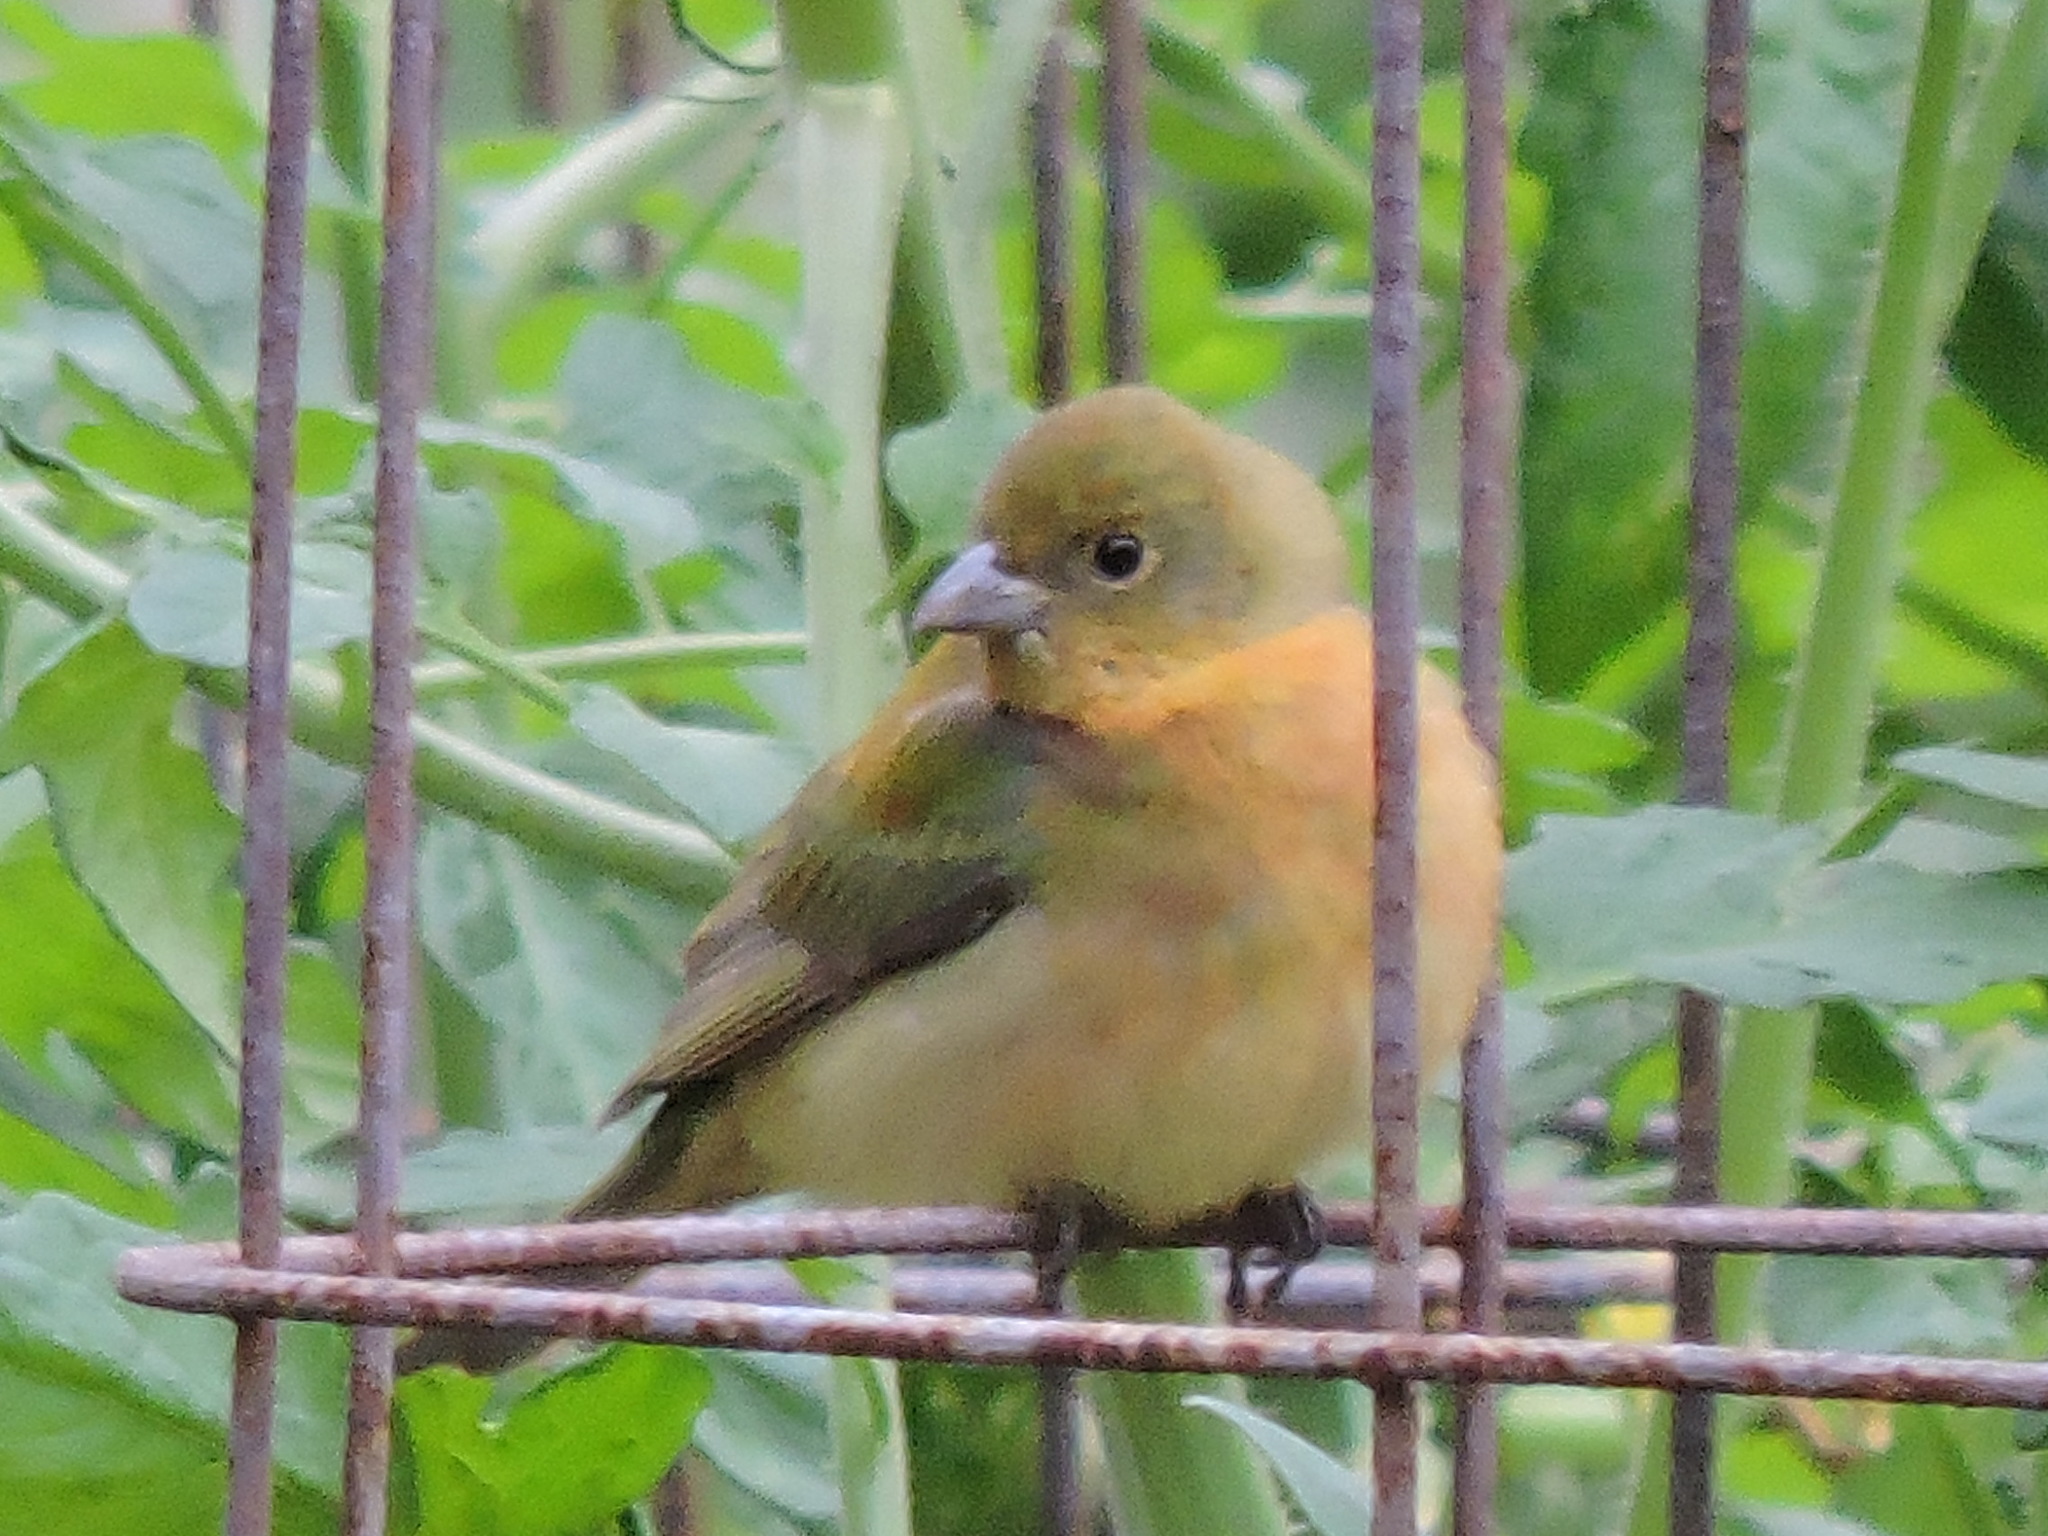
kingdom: Animalia
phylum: Chordata
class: Aves
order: Passeriformes
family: Cardinalidae
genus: Passerina
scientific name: Passerina ciris
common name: Painted bunting
